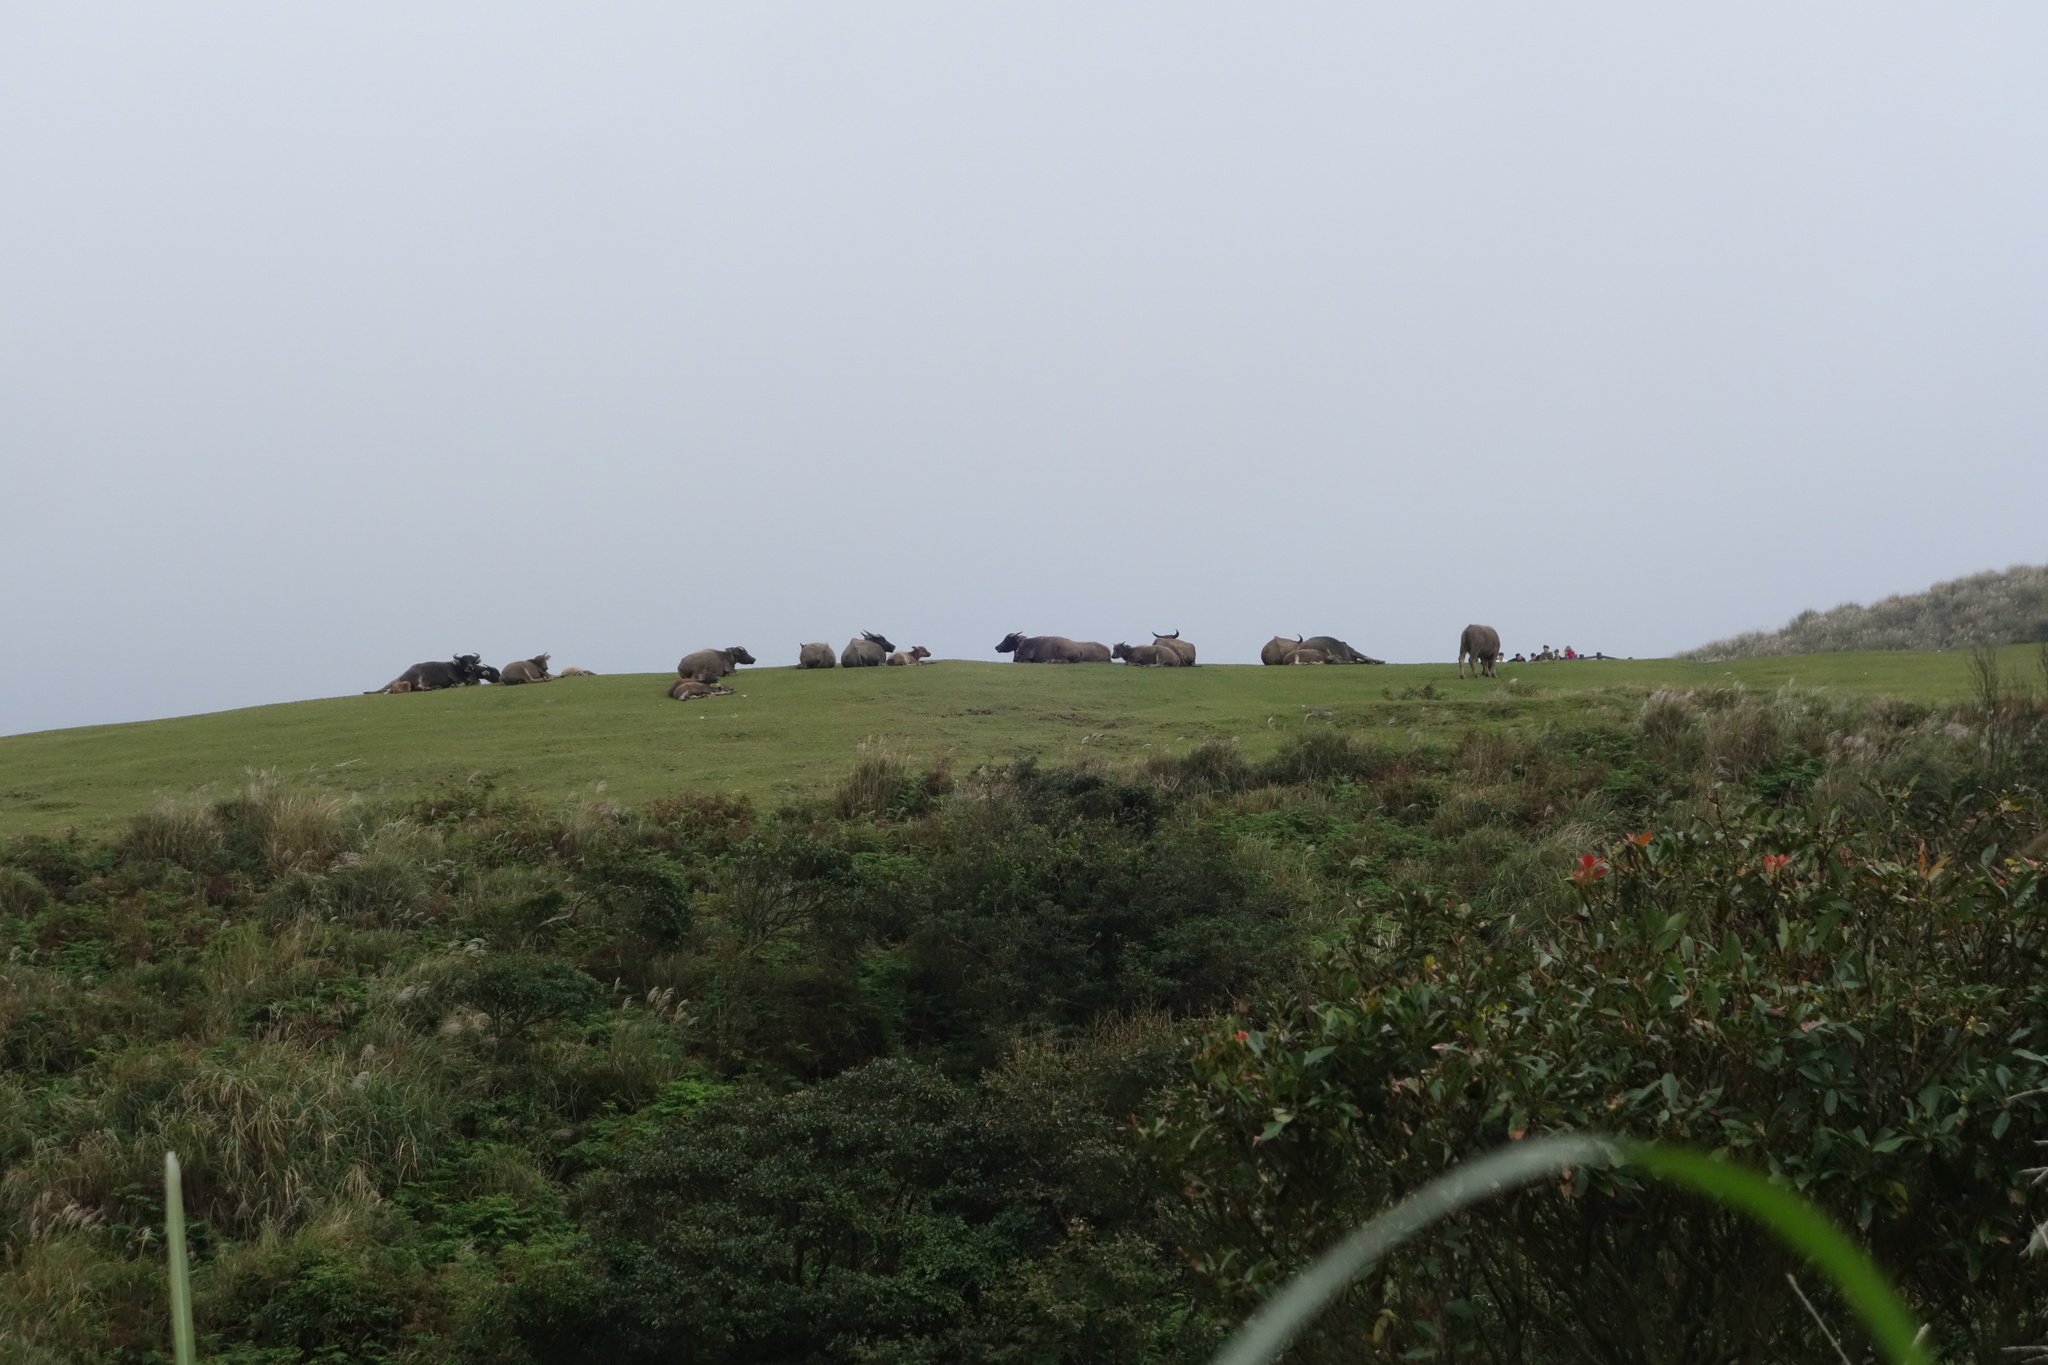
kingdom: Animalia
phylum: Chordata
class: Mammalia
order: Artiodactyla
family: Bovidae
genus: Bubalus
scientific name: Bubalus bubalis
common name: Water buffalo
